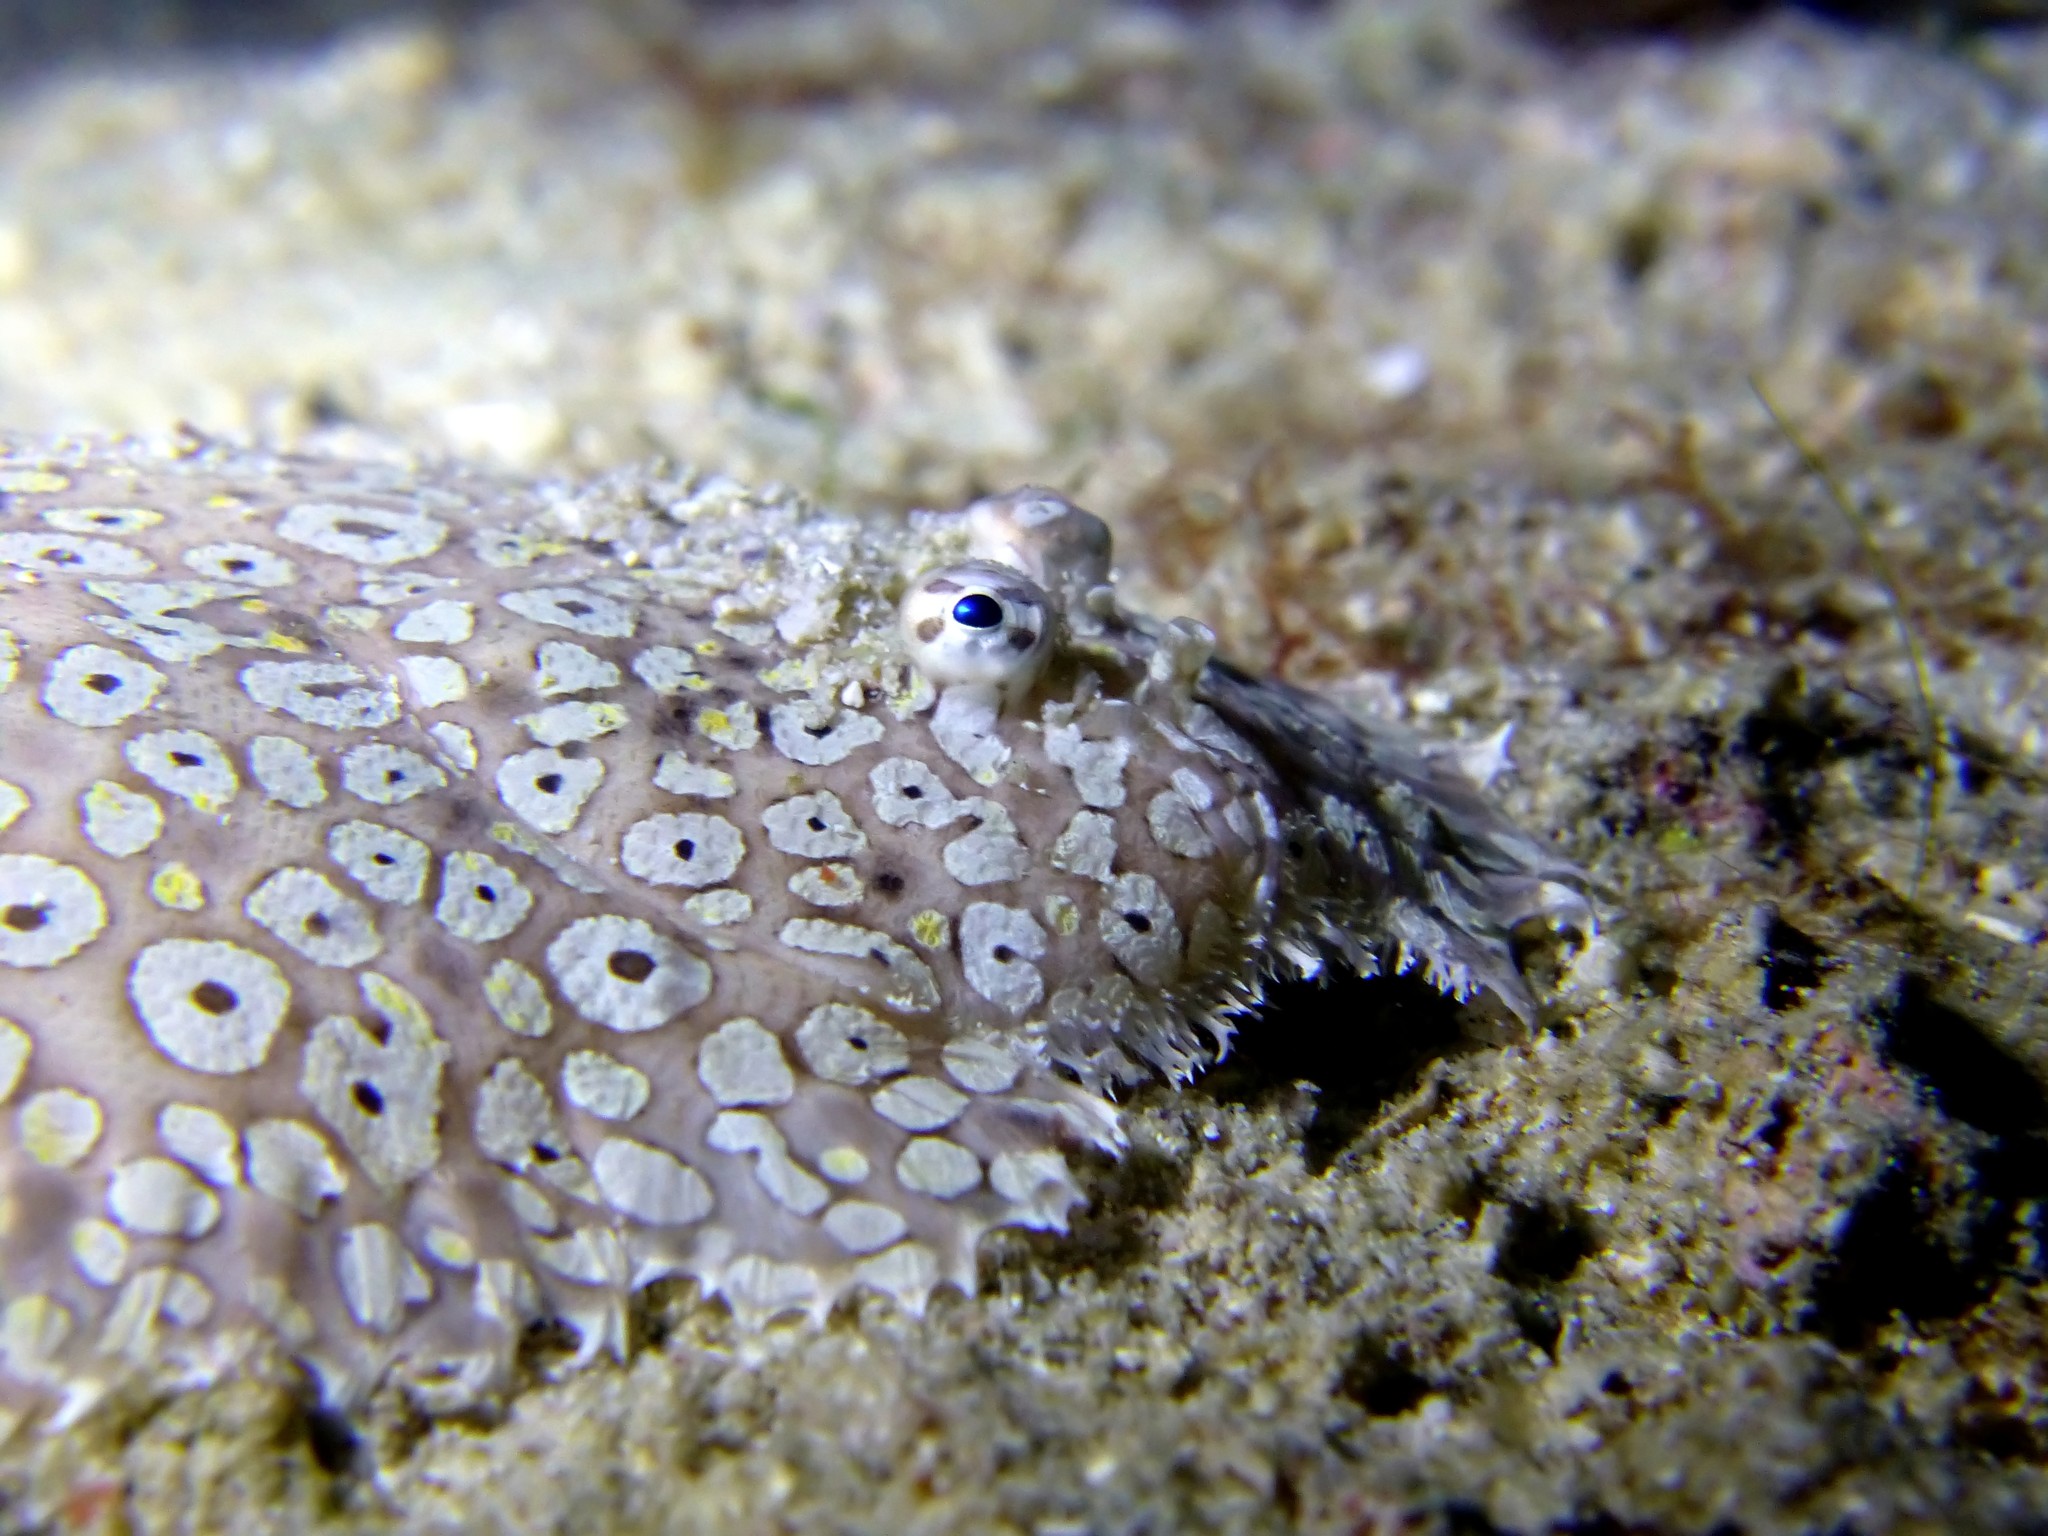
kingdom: Animalia
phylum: Chordata
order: Pleuronectiformes
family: Soleidae
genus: Pardachirus
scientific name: Pardachirus pavoninus
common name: Ocellated sole
